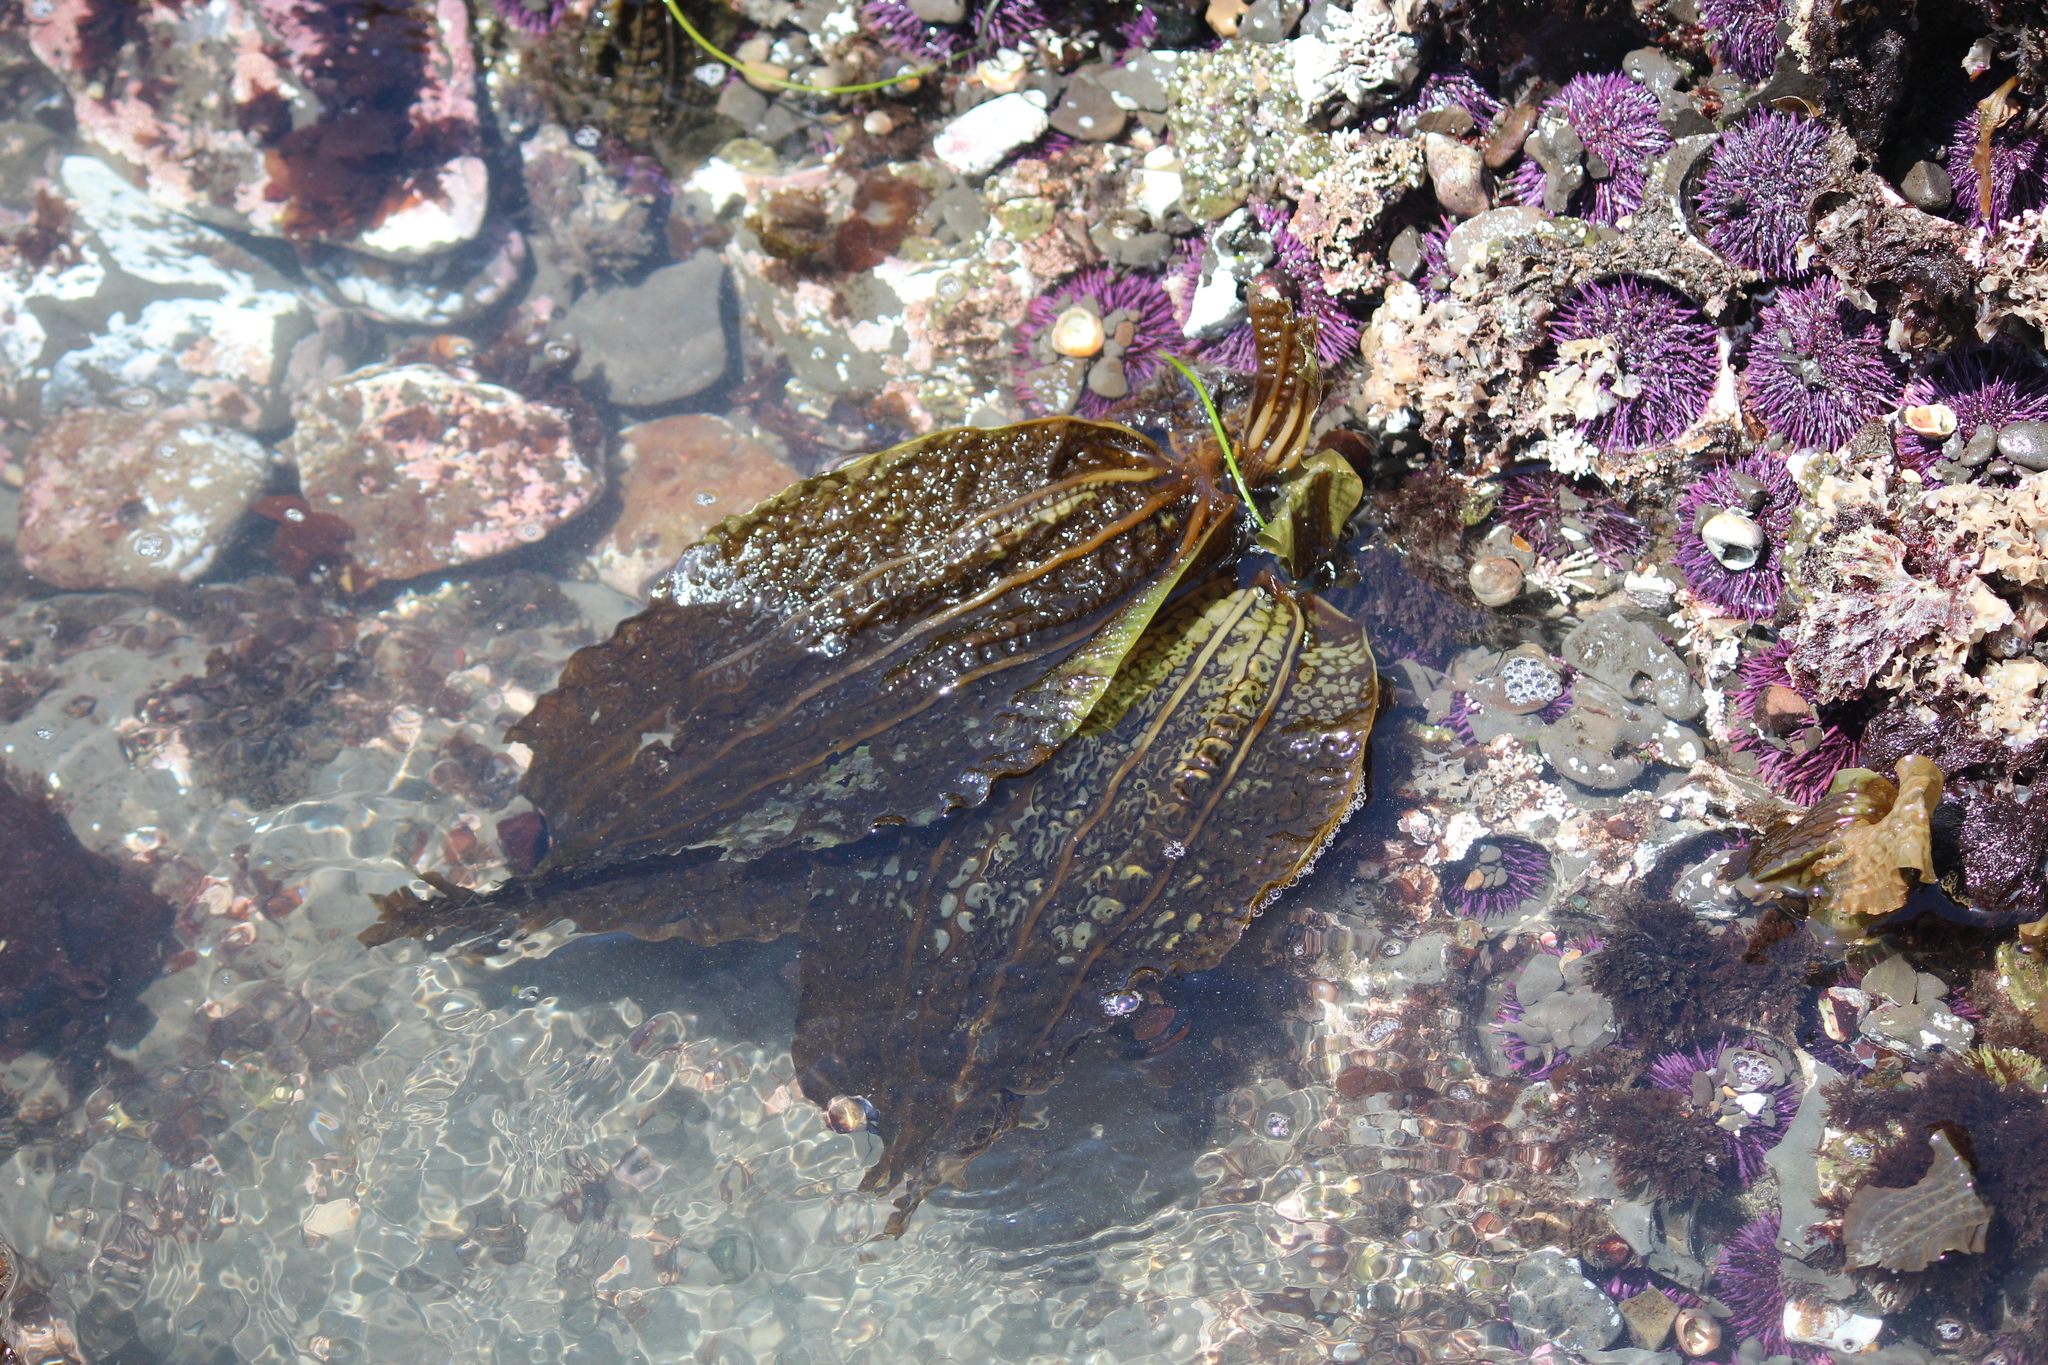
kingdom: Chromista
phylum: Ochrophyta
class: Phaeophyceae
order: Laminariales
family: Costariaceae
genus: Costaria
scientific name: Costaria costata
